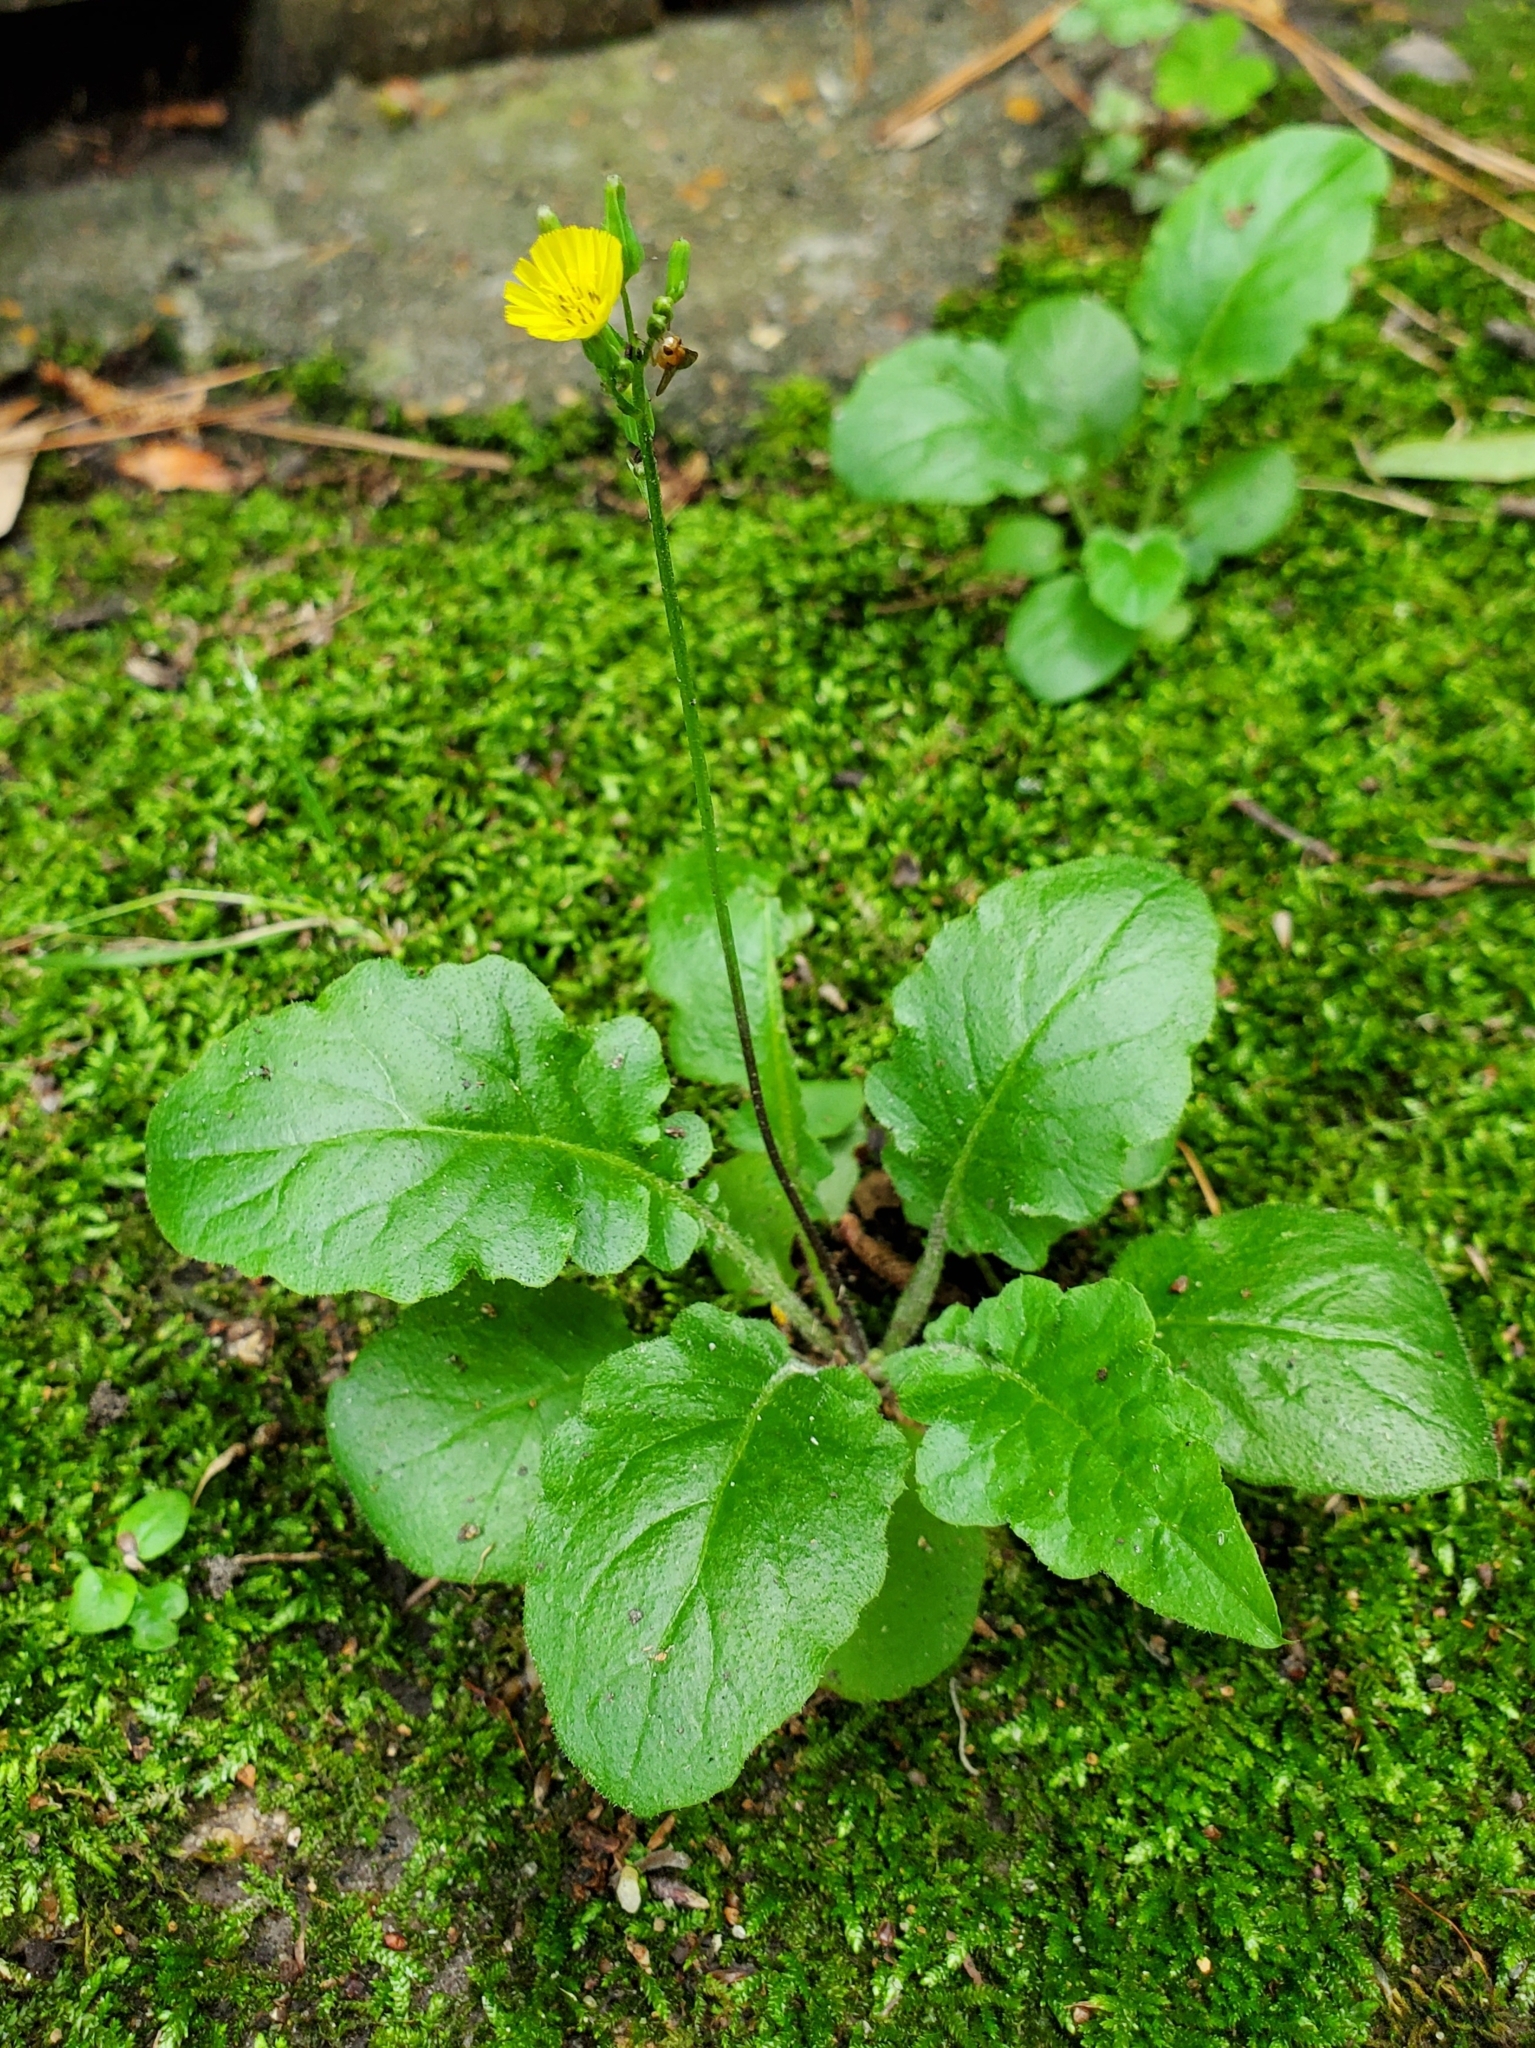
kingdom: Plantae
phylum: Tracheophyta
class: Magnoliopsida
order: Asterales
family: Asteraceae
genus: Youngia
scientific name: Youngia japonica
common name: Oriental false hawksbeard
